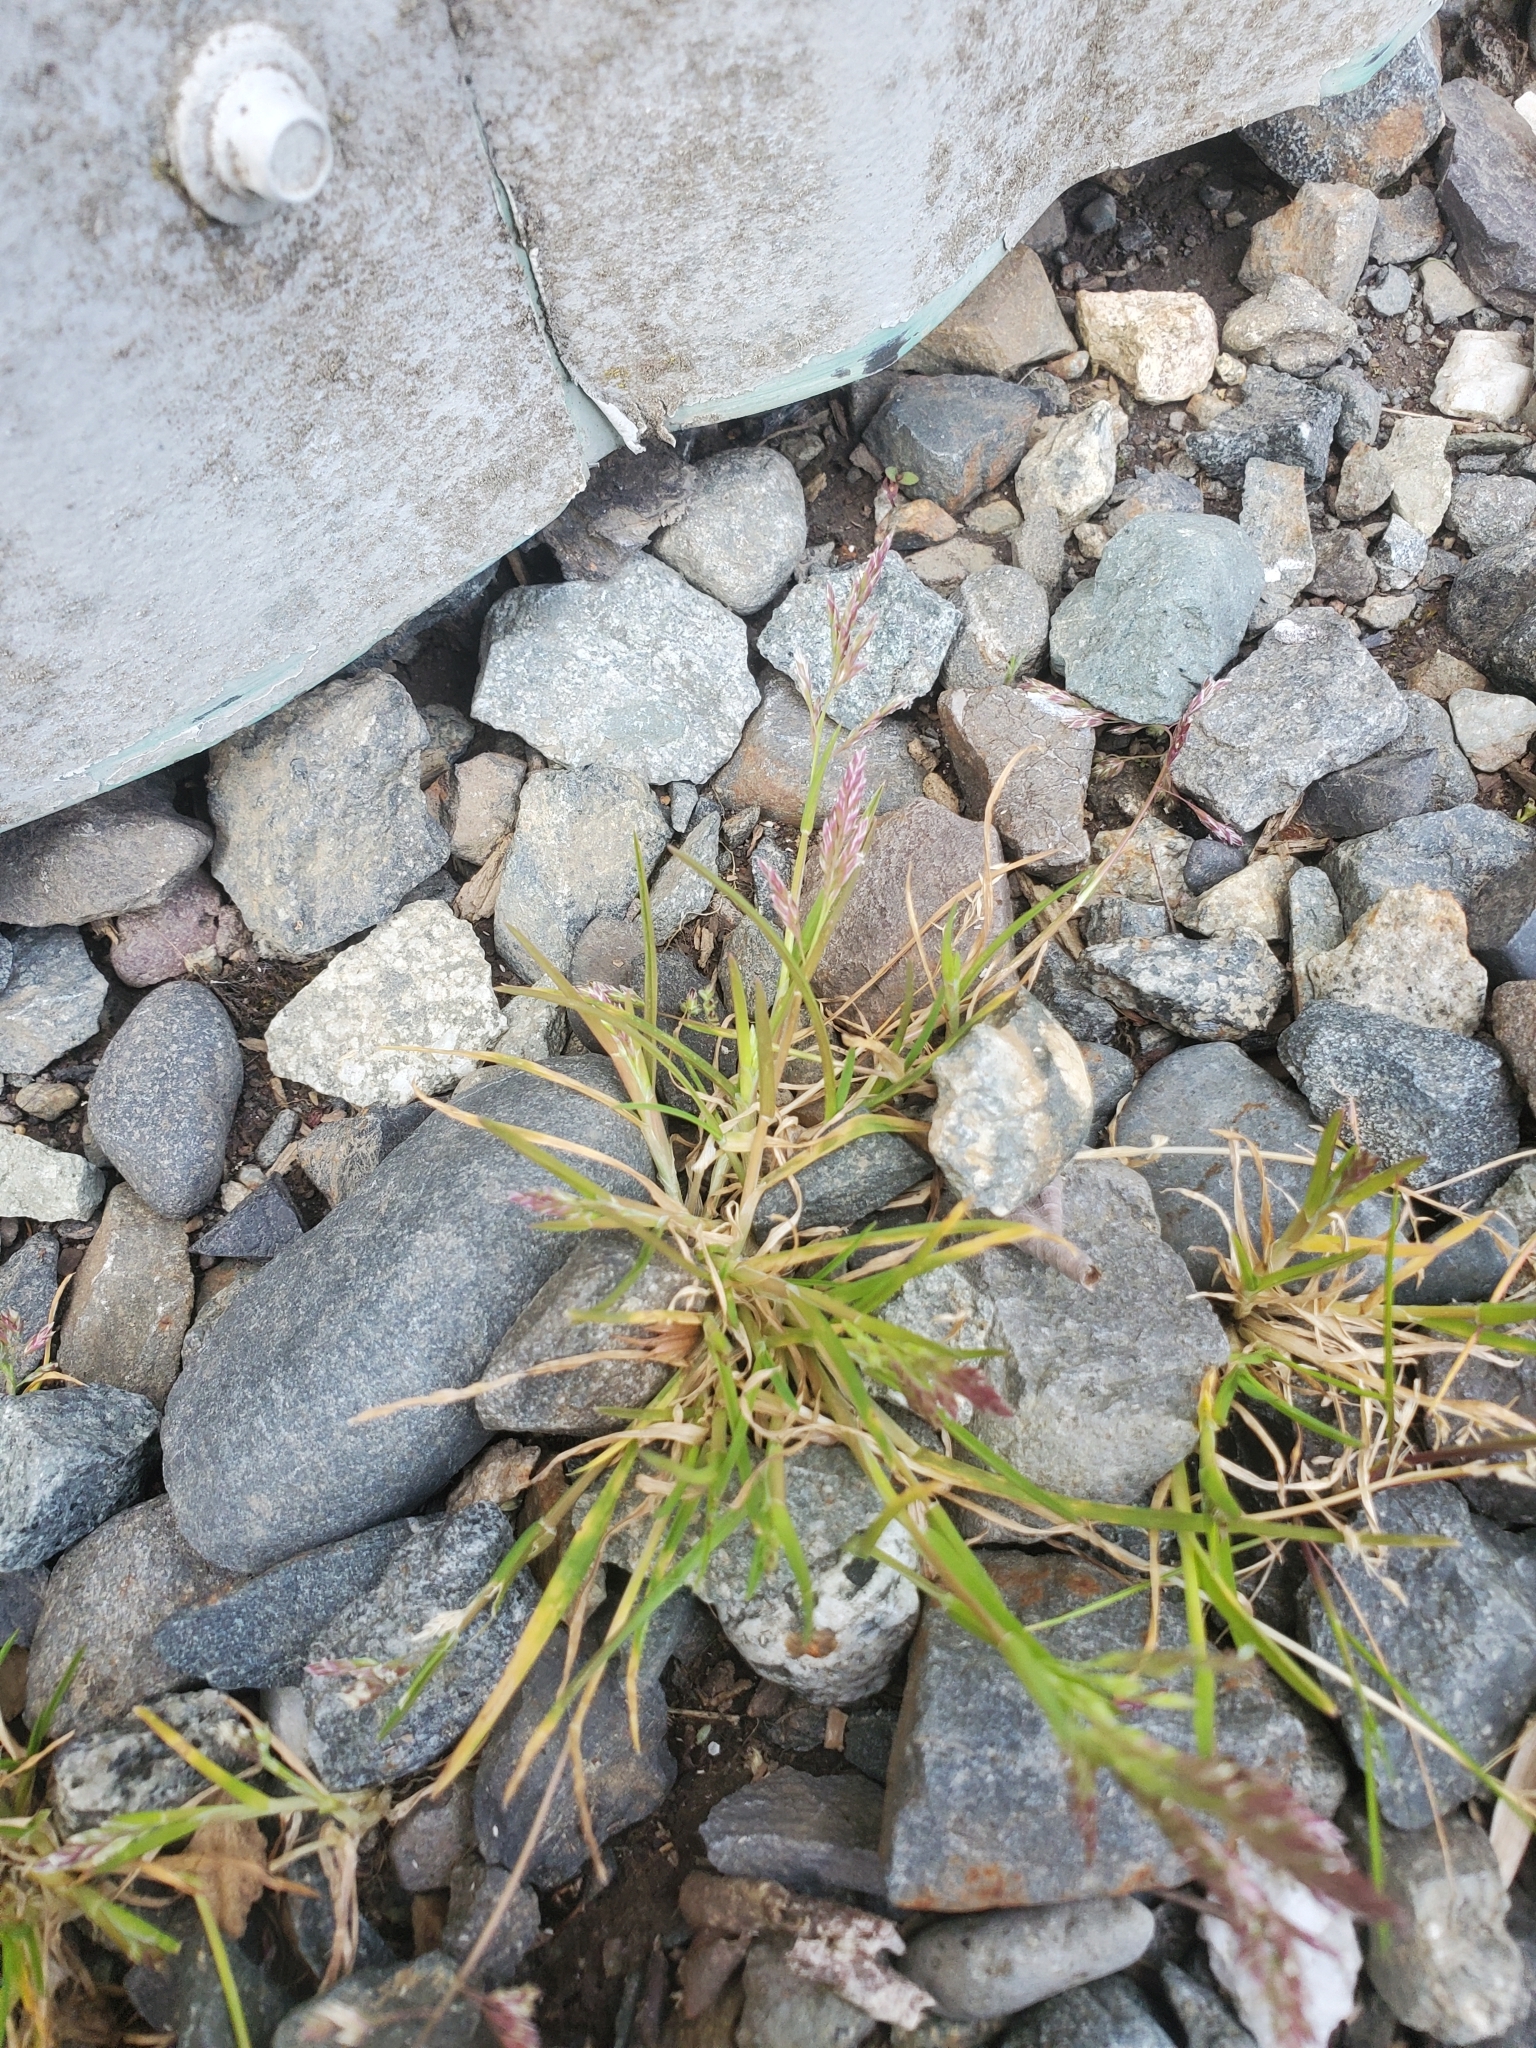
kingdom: Plantae
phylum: Tracheophyta
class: Liliopsida
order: Poales
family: Poaceae
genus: Poa
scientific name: Poa annua
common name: Annual bluegrass
